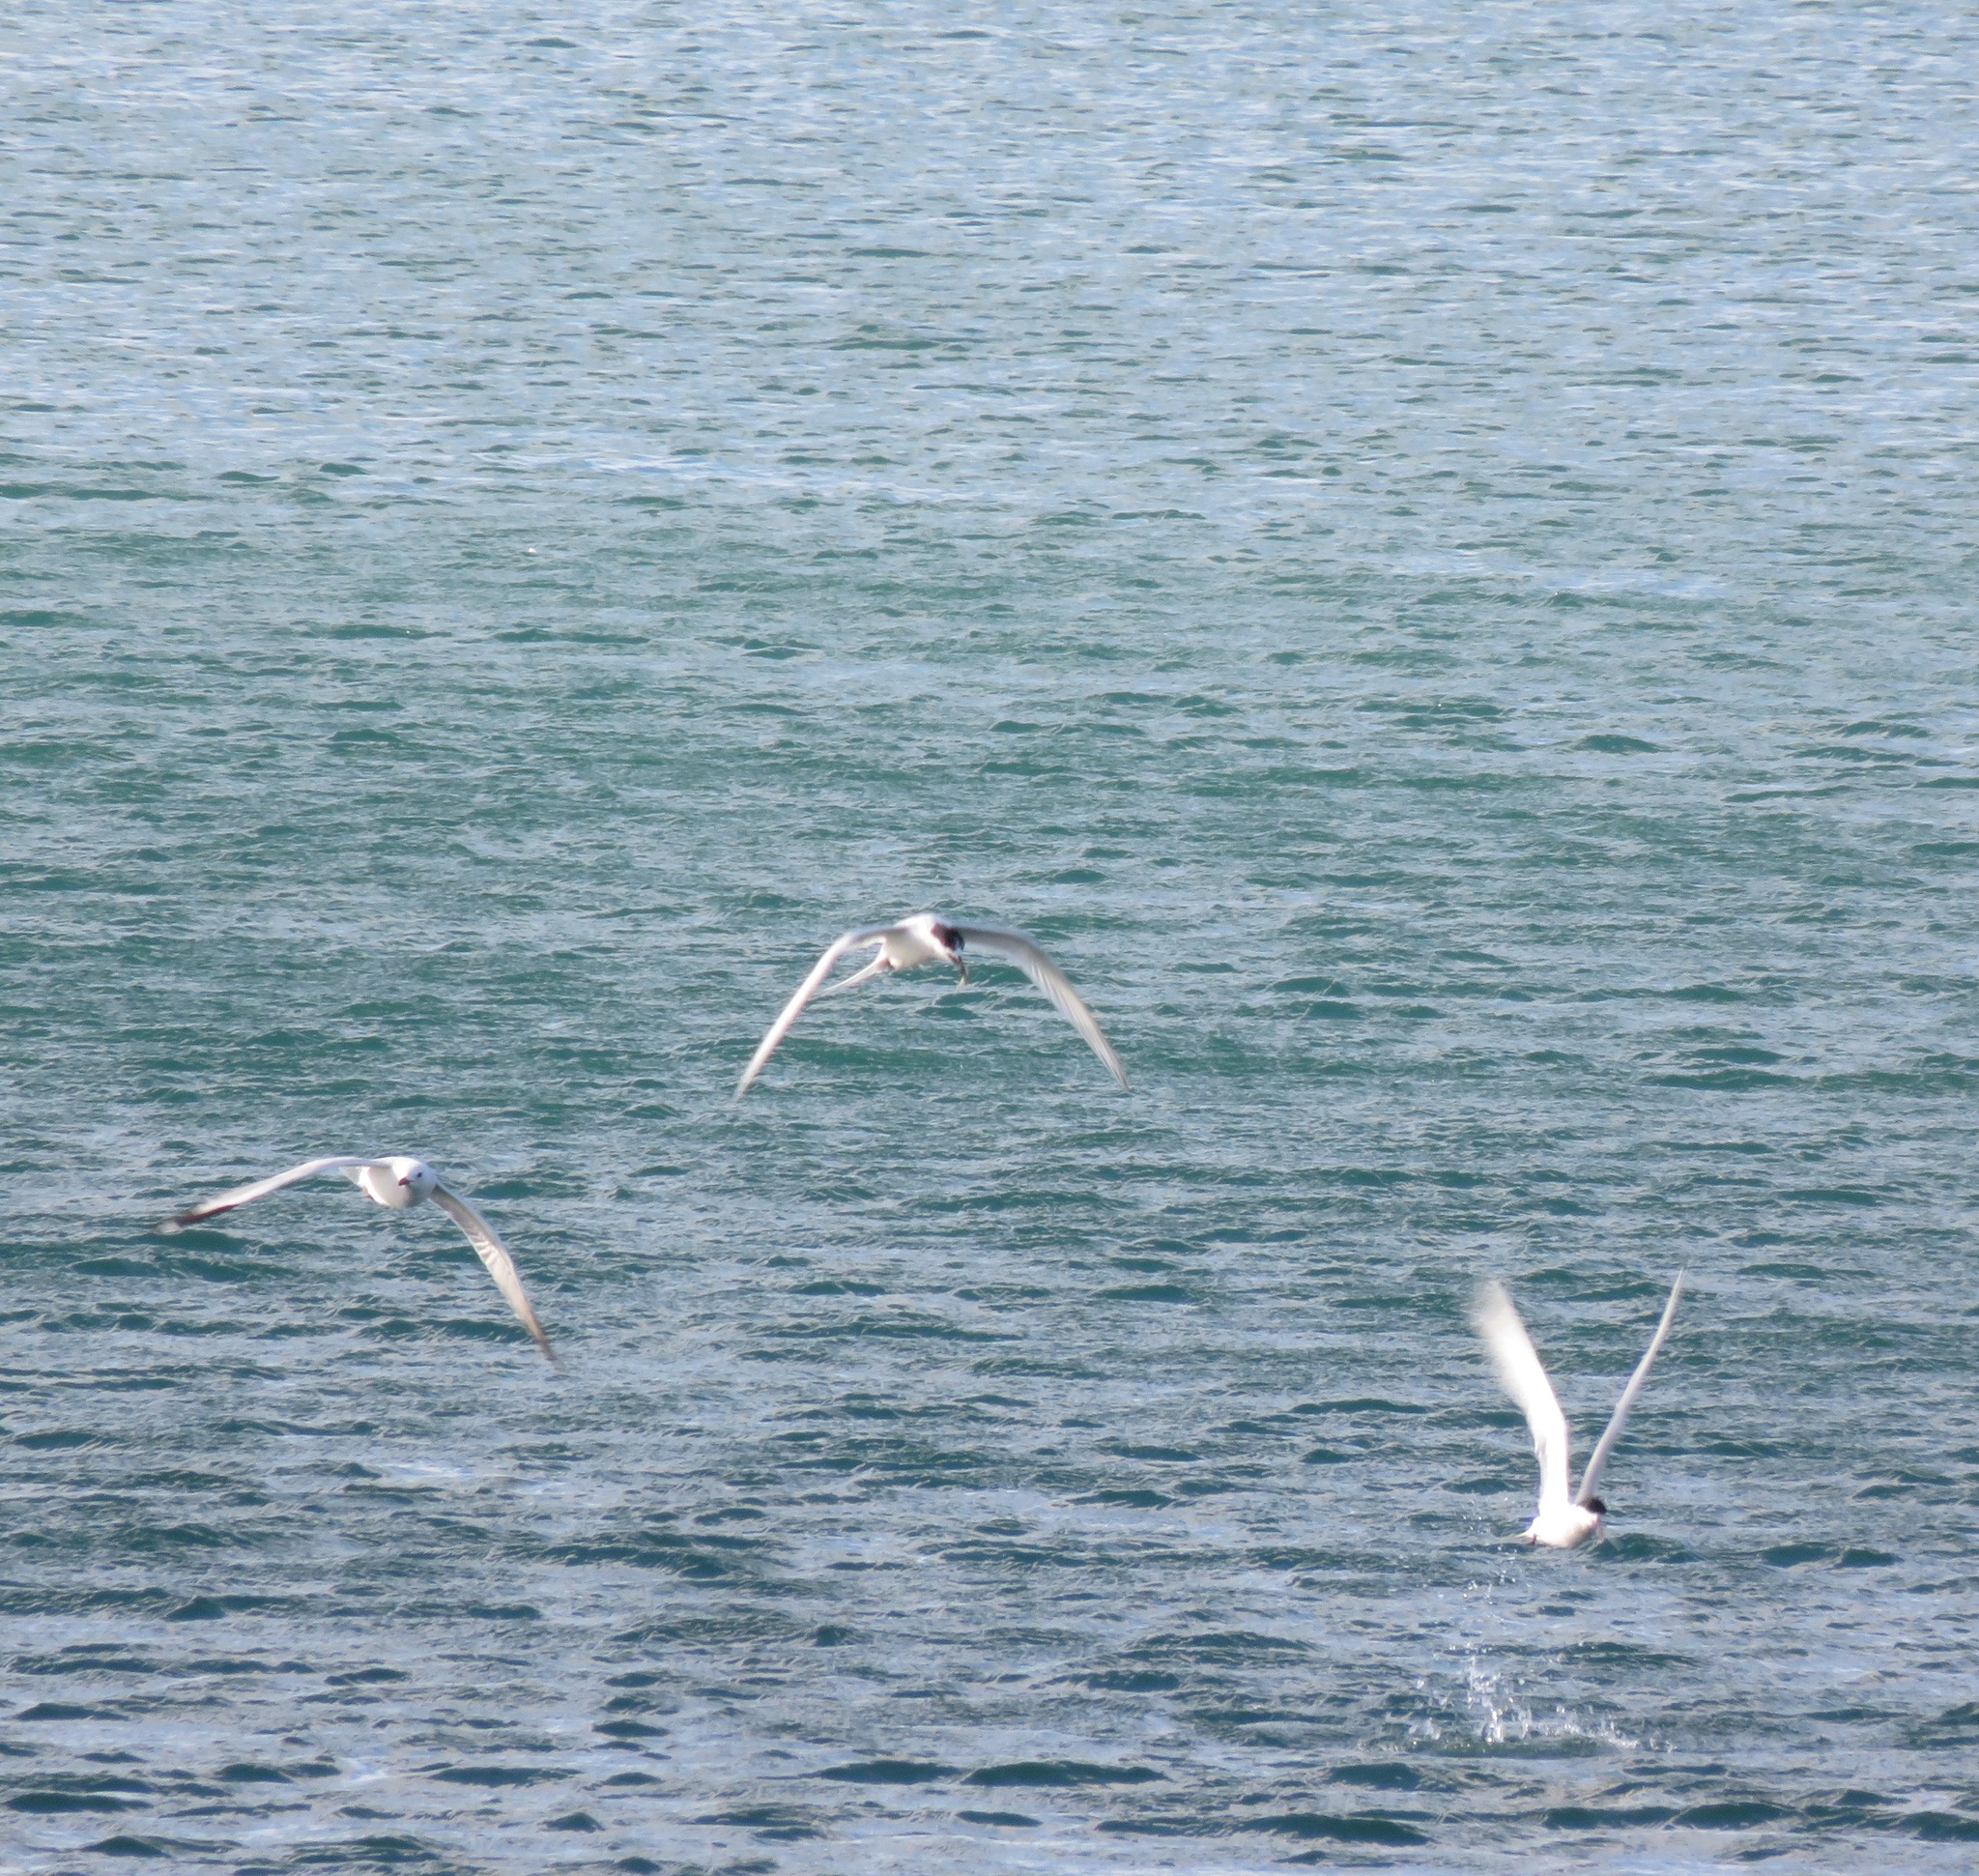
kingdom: Animalia
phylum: Chordata
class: Aves
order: Charadriiformes
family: Laridae
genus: Sterna
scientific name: Sterna striata
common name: White-fronted tern
